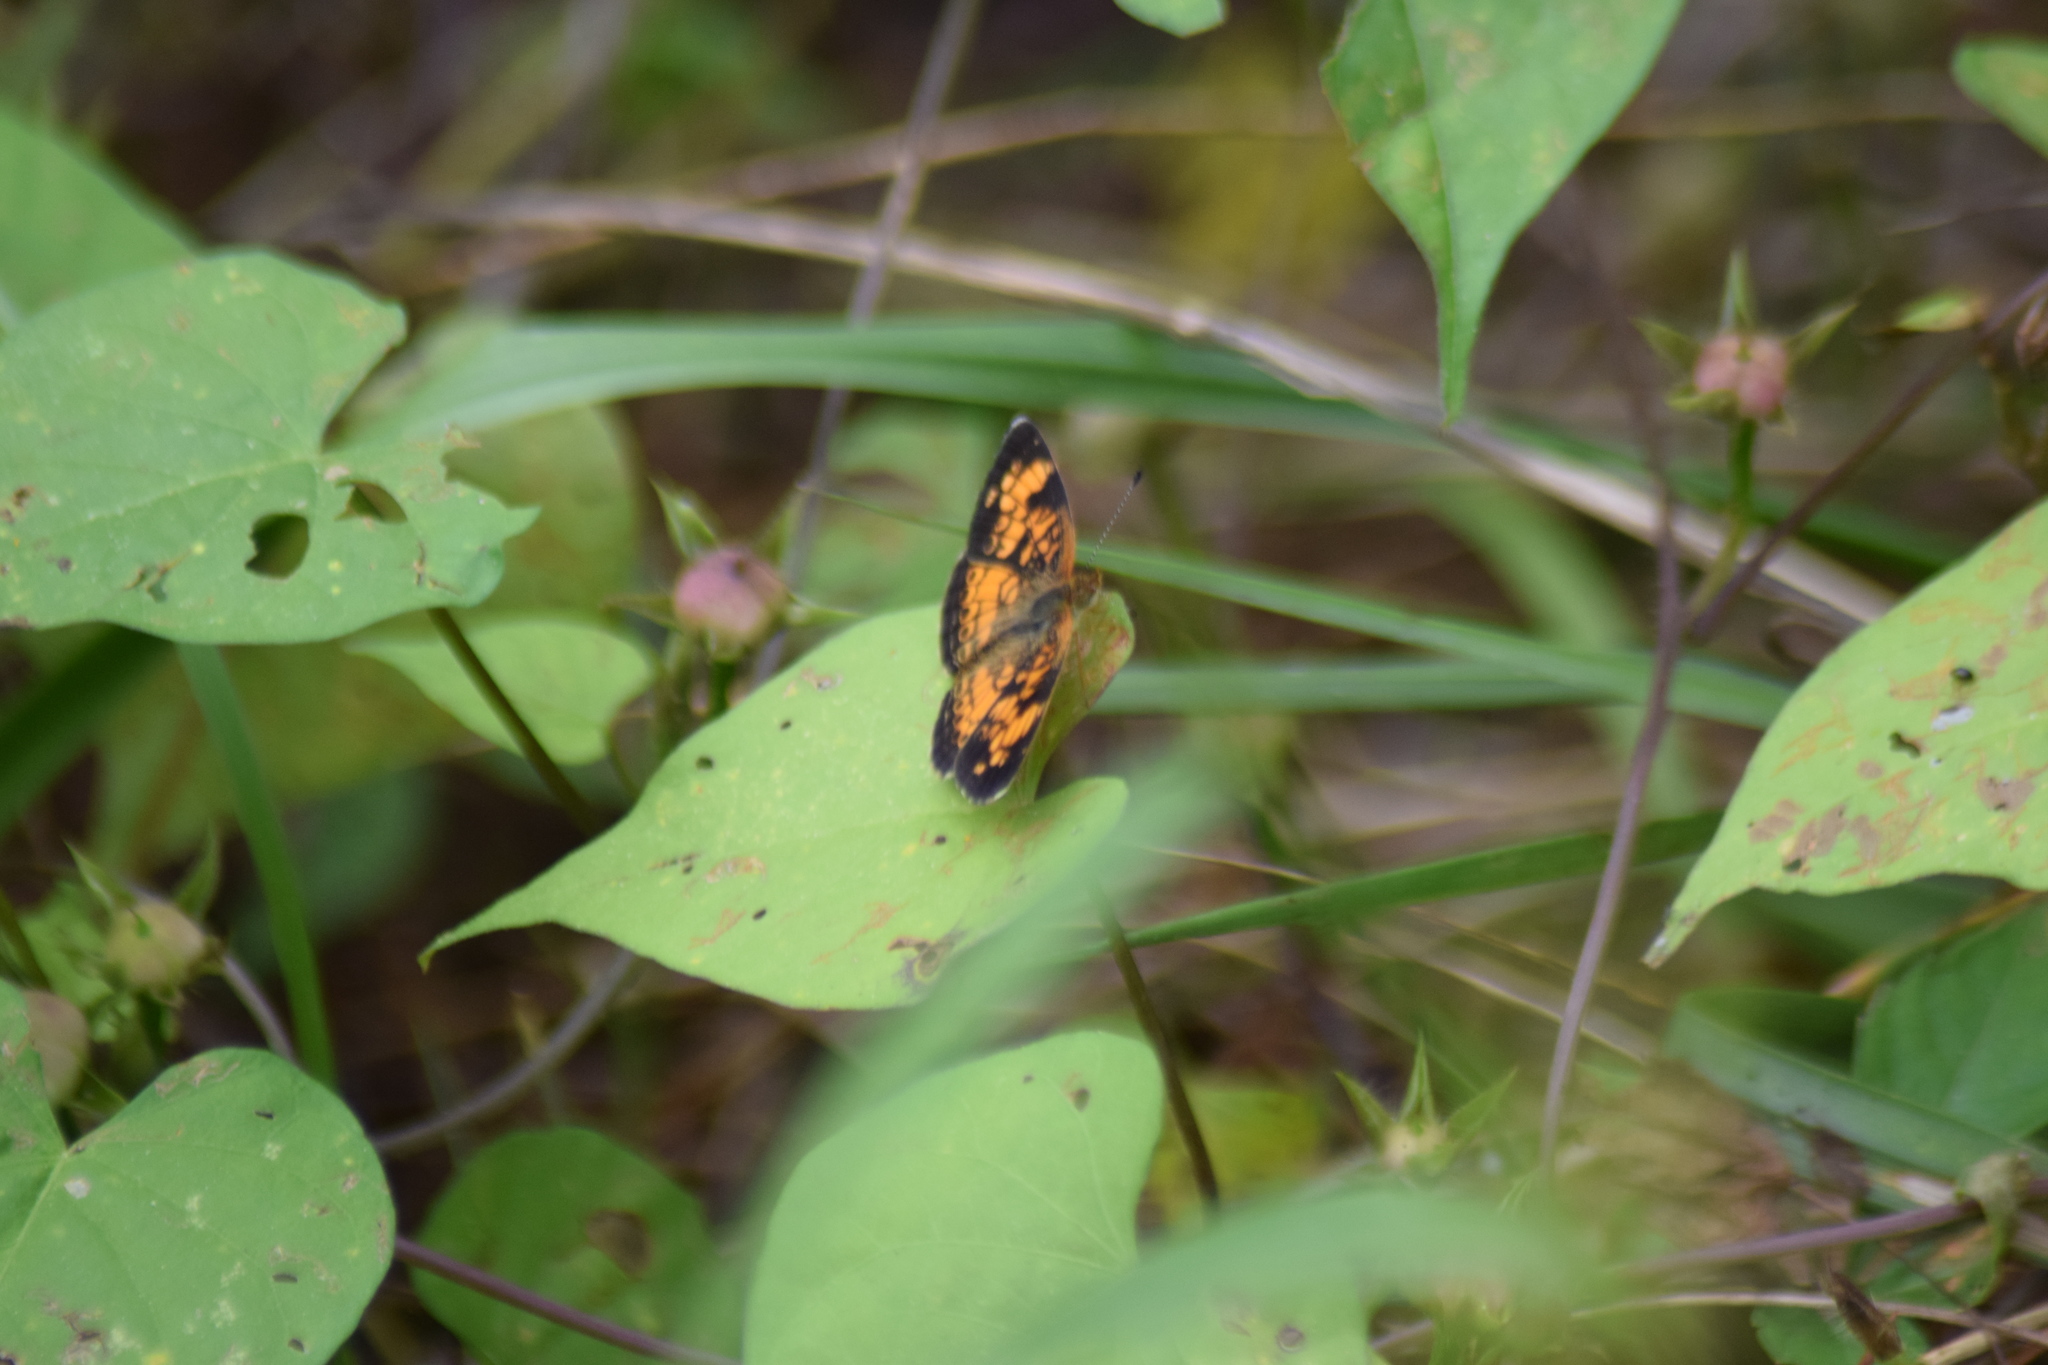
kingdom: Animalia
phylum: Arthropoda
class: Insecta
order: Lepidoptera
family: Nymphalidae
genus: Phyciodes
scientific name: Phyciodes tharos
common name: Pearl crescent
